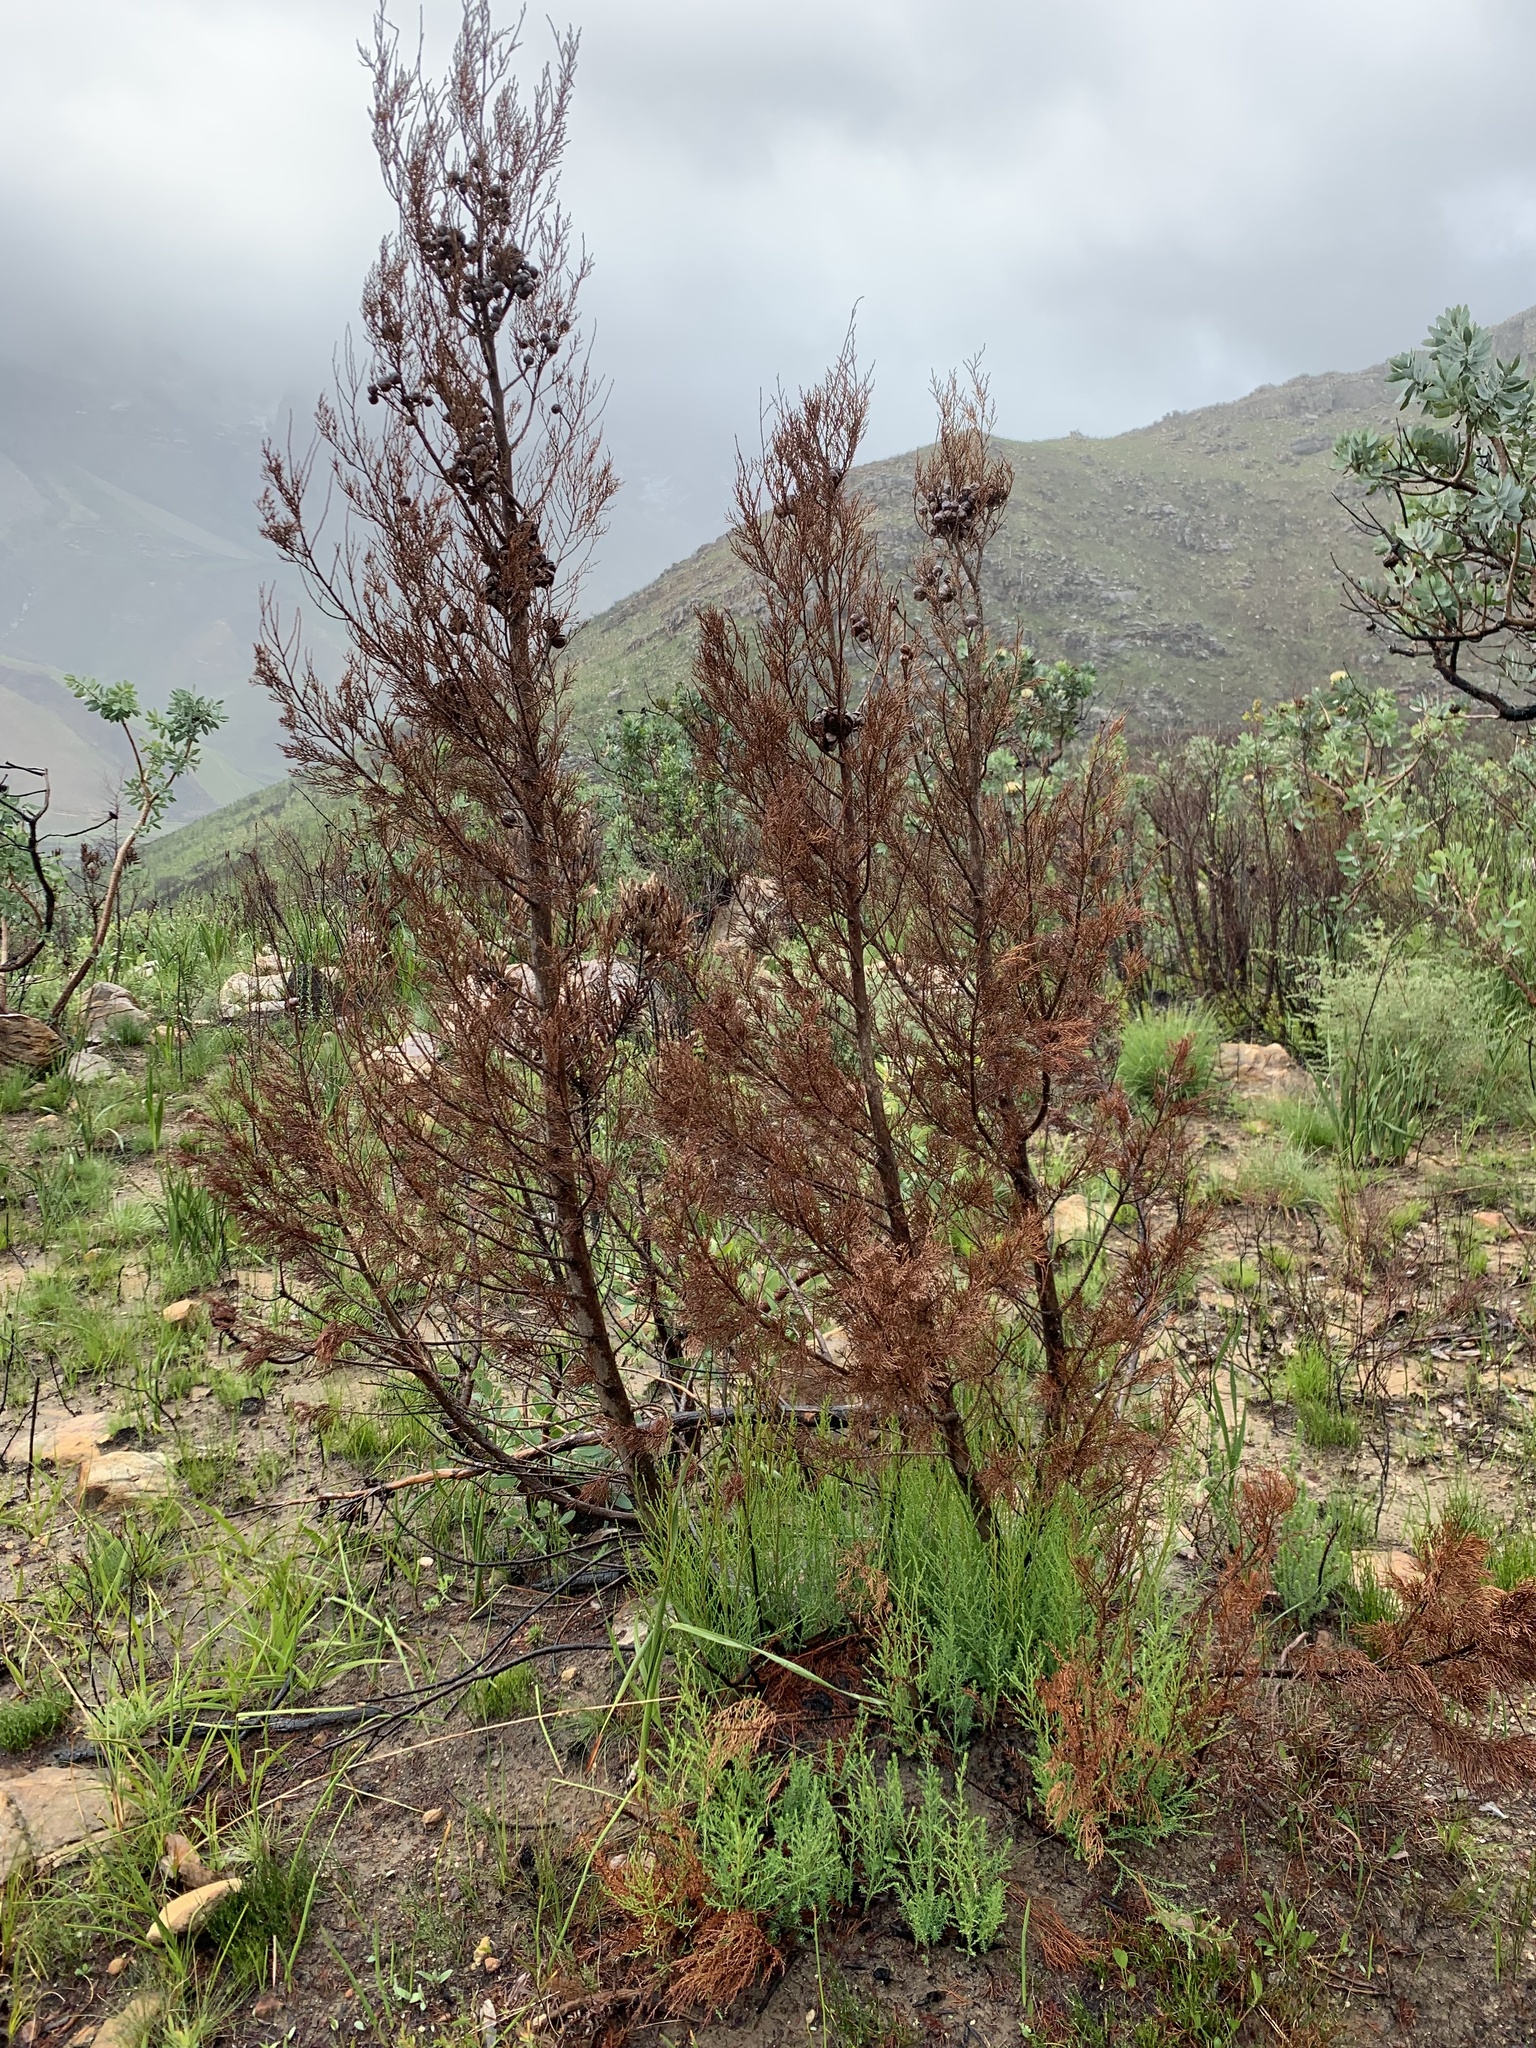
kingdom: Plantae
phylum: Tracheophyta
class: Pinopsida
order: Pinales
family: Cupressaceae
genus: Widdringtonia
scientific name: Widdringtonia nodiflora
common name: Cape cypress
